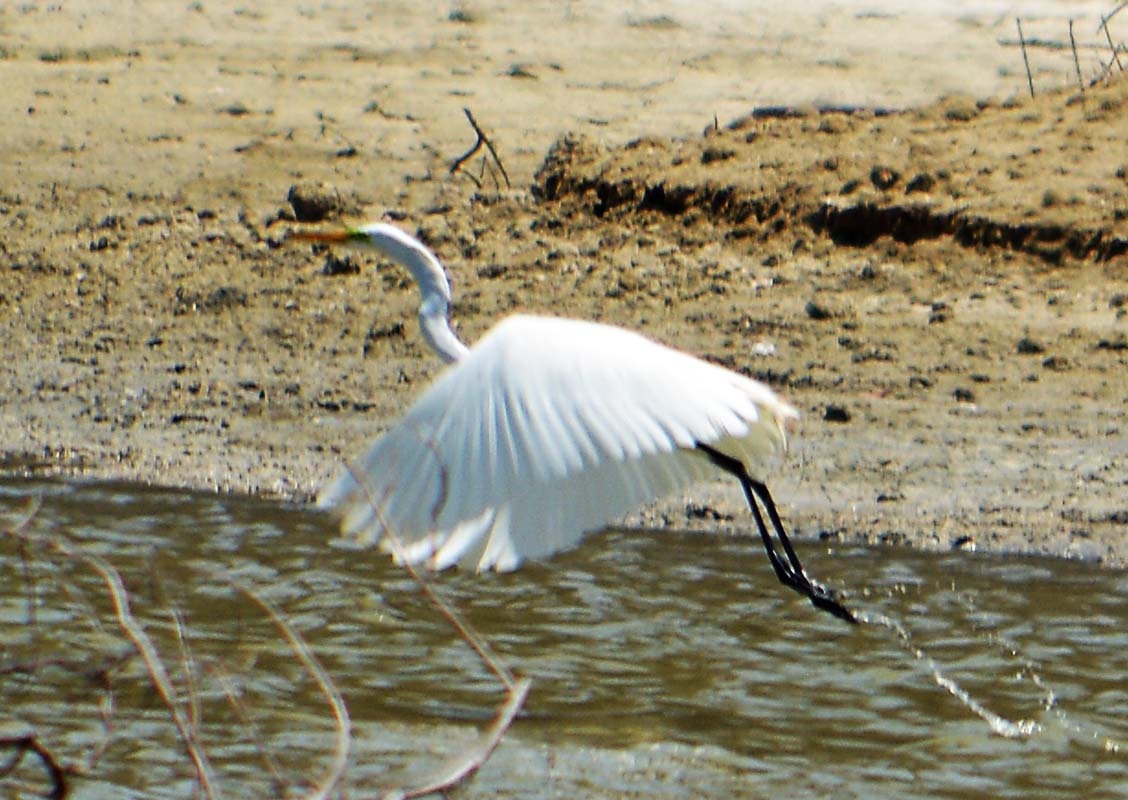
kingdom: Animalia
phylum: Chordata
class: Aves
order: Pelecaniformes
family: Ardeidae
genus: Ardea
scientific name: Ardea alba
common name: Great egret
